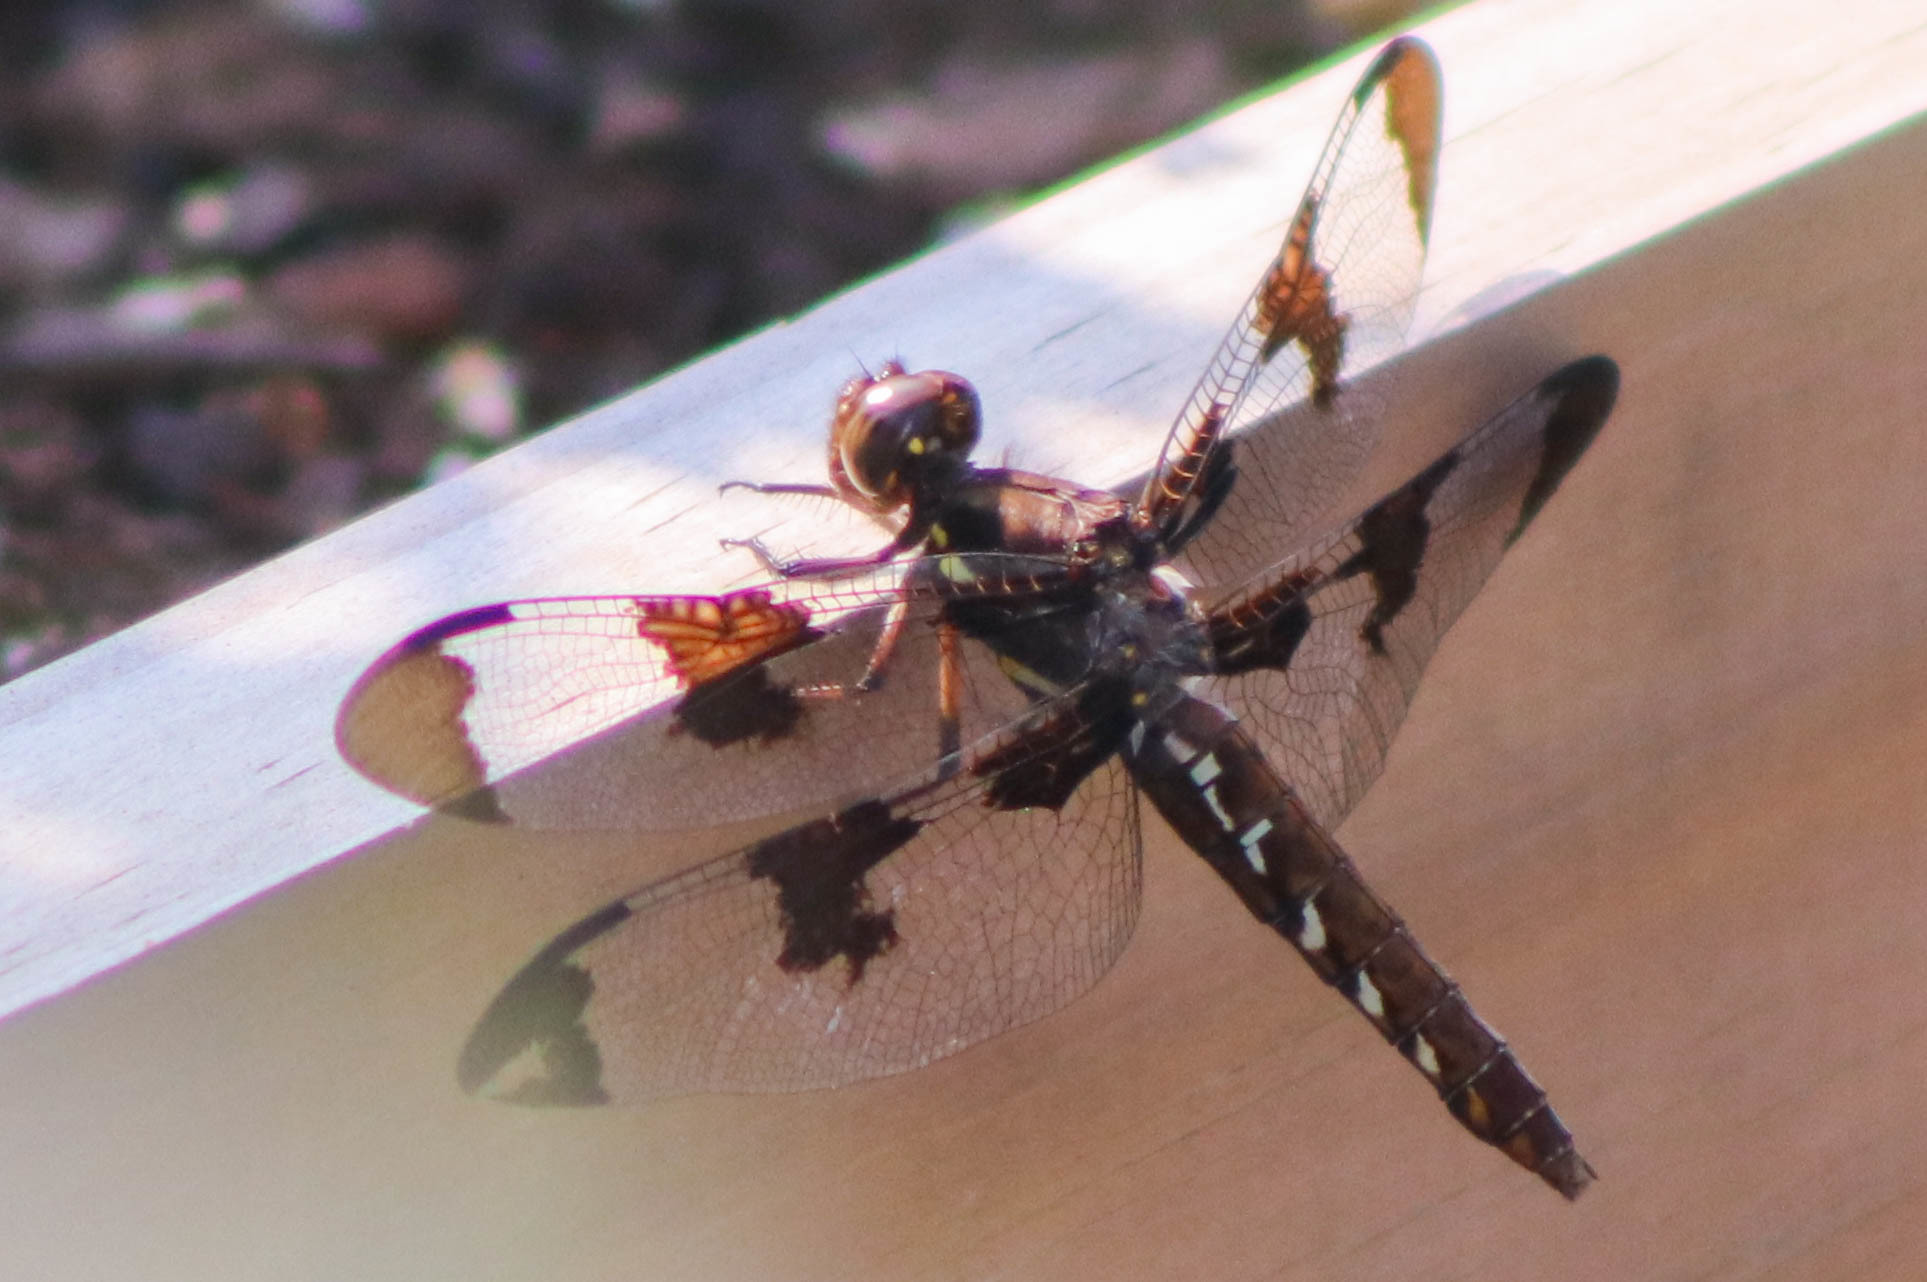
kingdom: Animalia
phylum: Arthropoda
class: Insecta
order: Odonata
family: Libellulidae
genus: Plathemis
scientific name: Plathemis lydia
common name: Common whitetail
